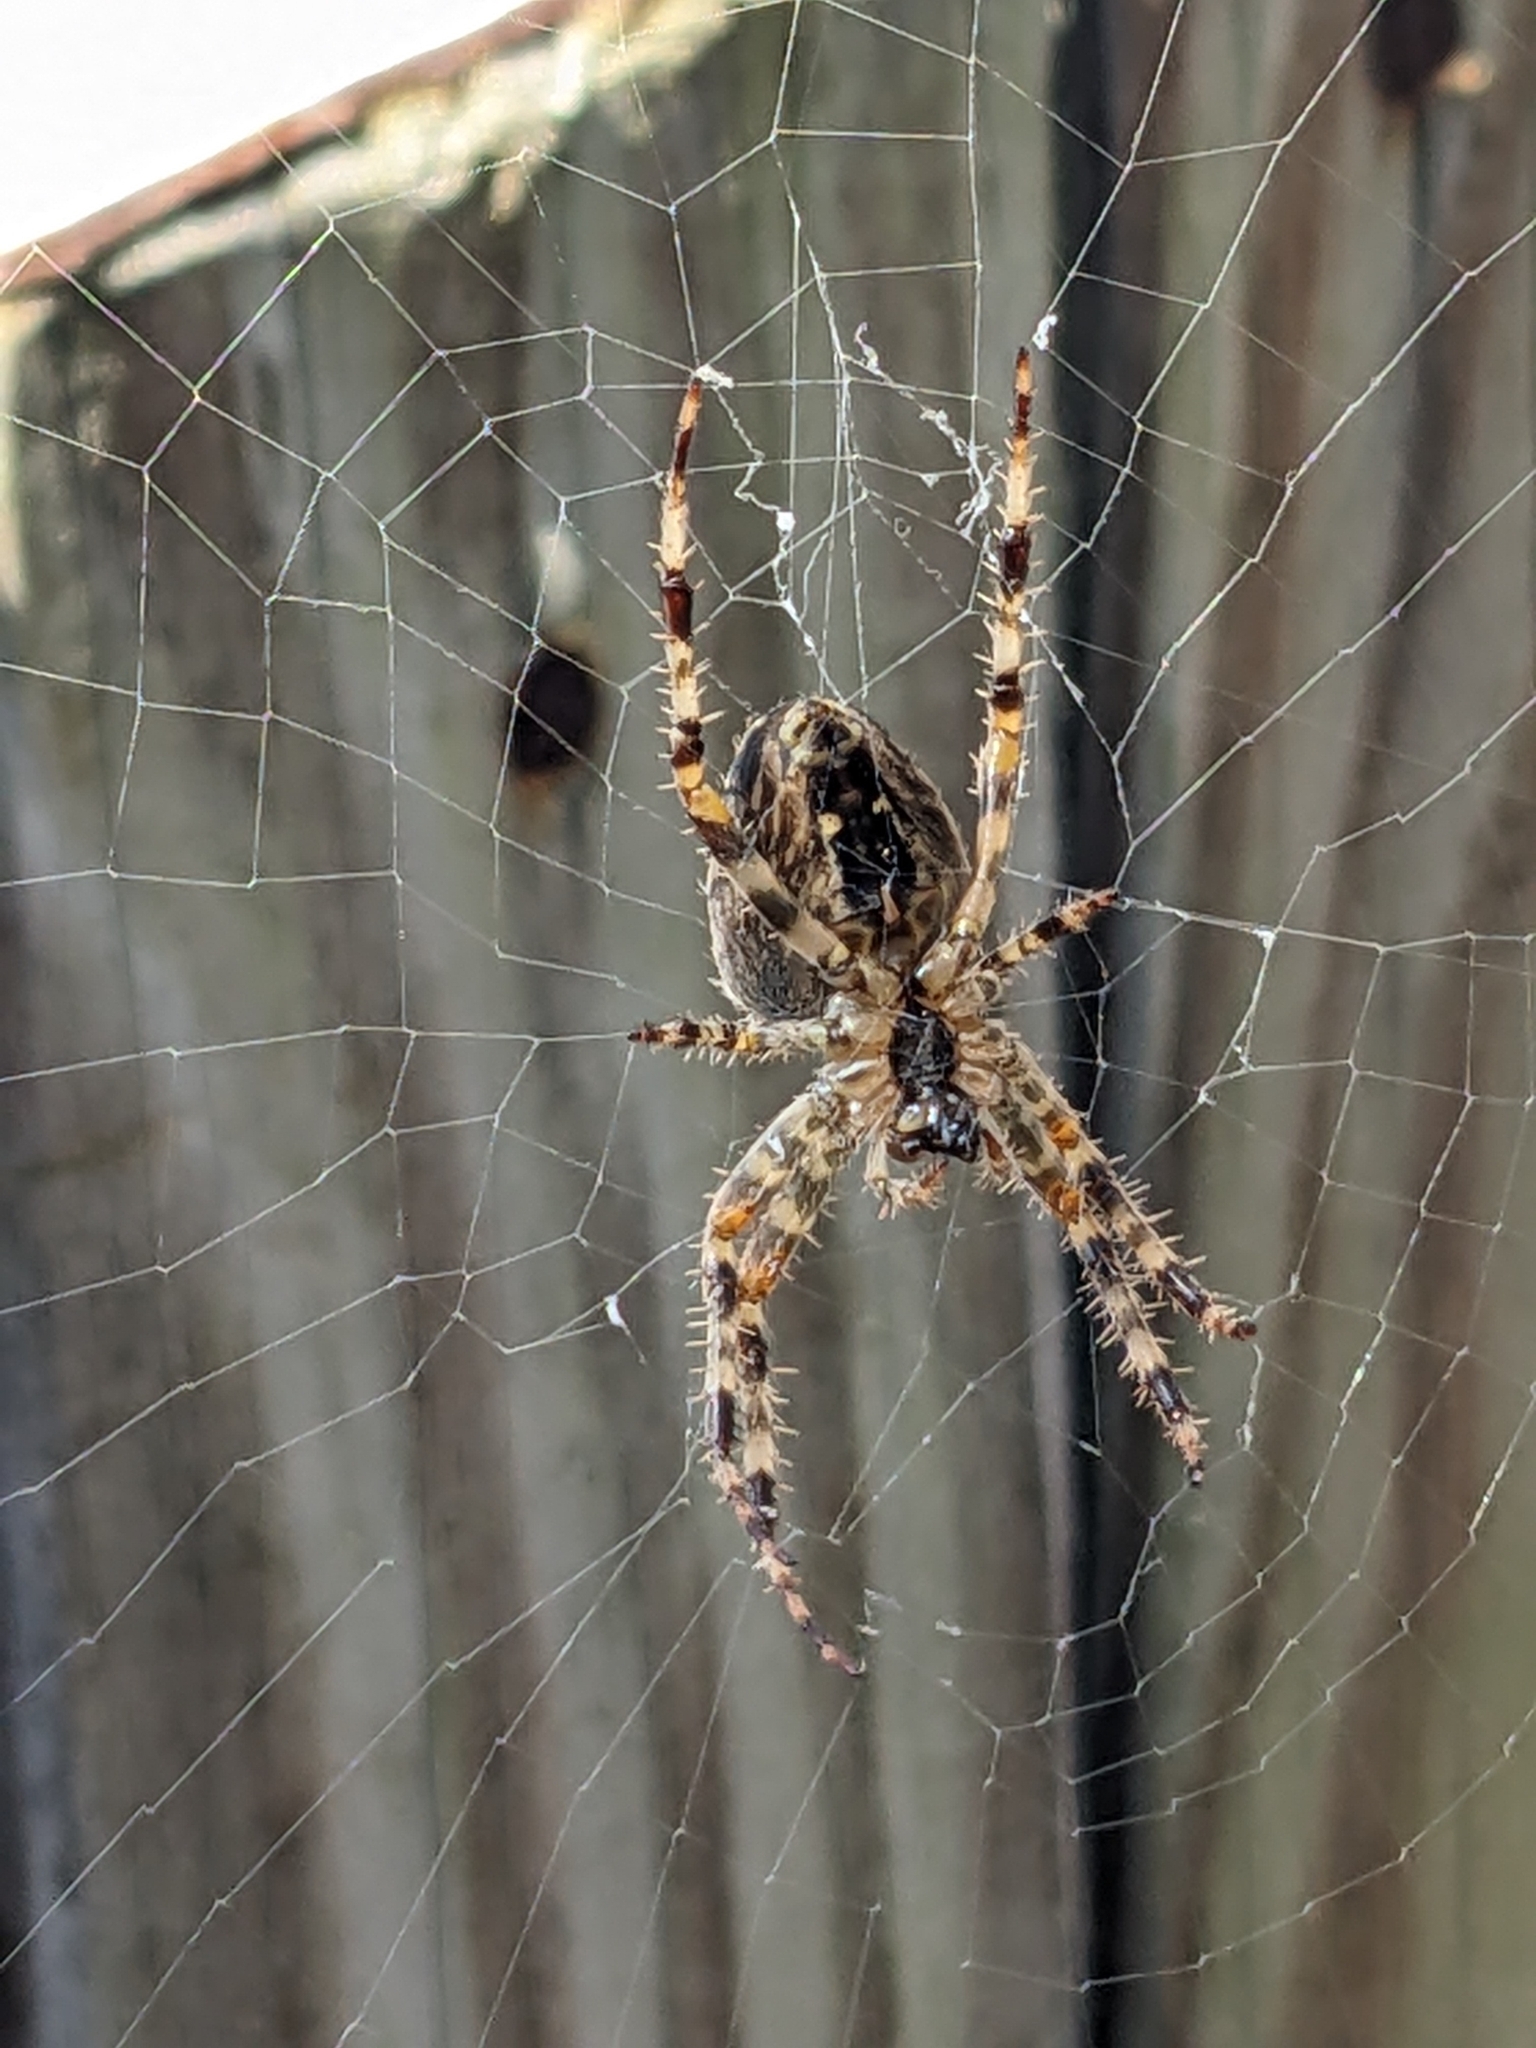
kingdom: Animalia
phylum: Arthropoda
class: Arachnida
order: Araneae
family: Araneidae
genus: Araneus
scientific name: Araneus diadematus
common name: Cross orbweaver
